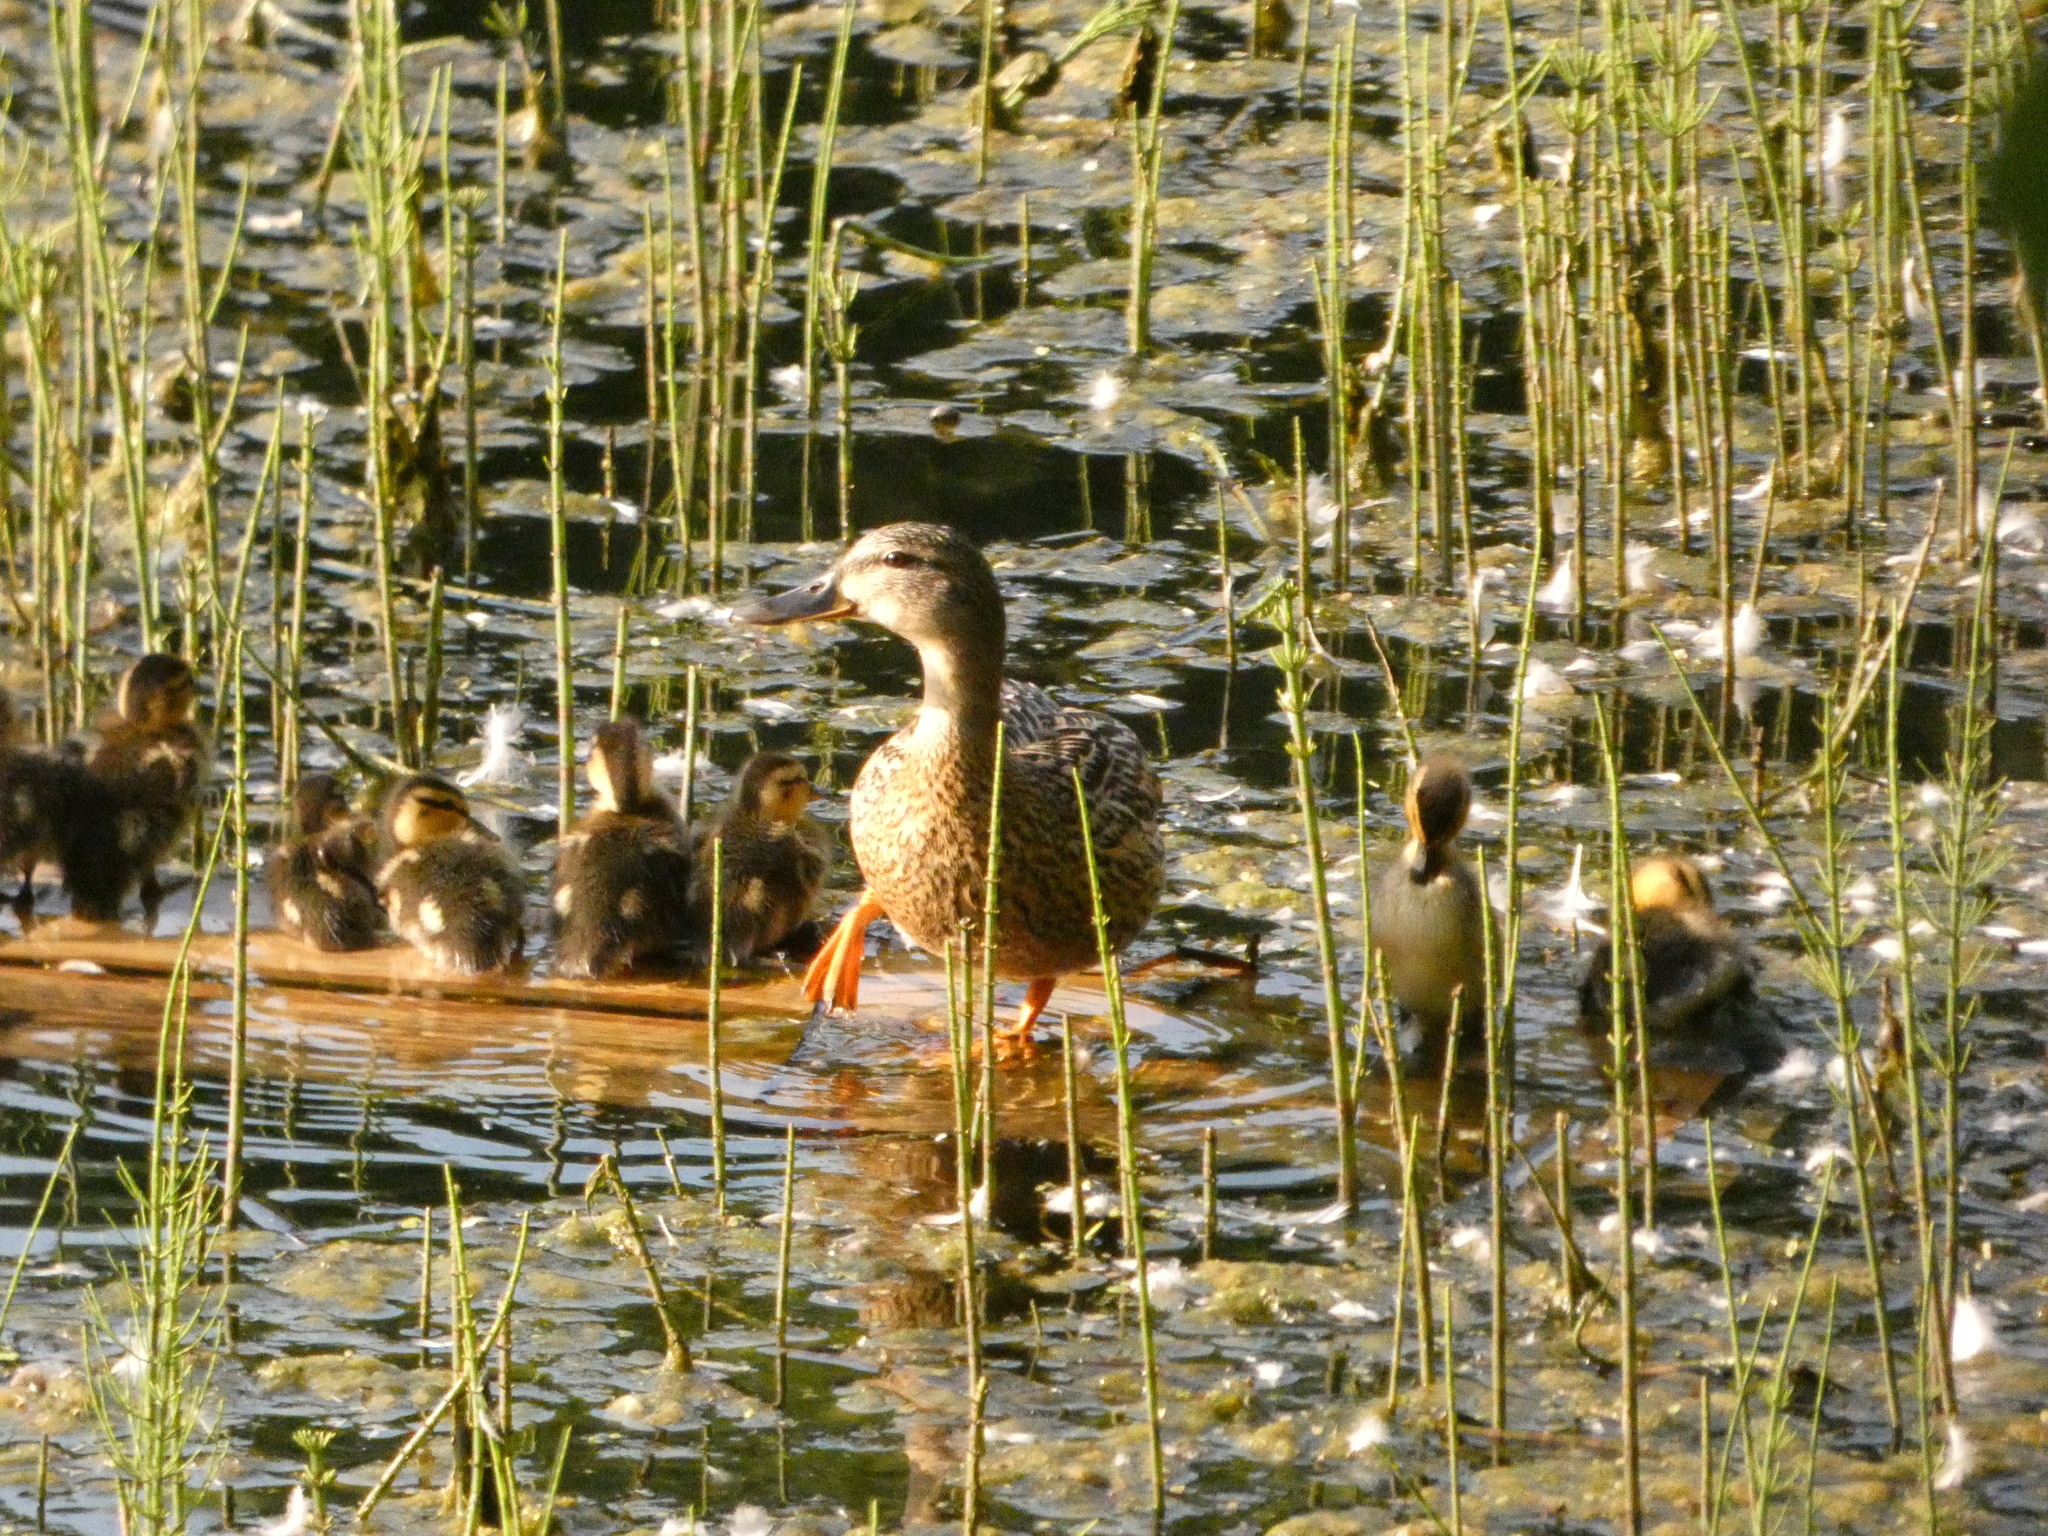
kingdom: Animalia
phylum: Chordata
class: Aves
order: Anseriformes
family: Anatidae
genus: Anas
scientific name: Anas platyrhynchos
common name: Mallard
